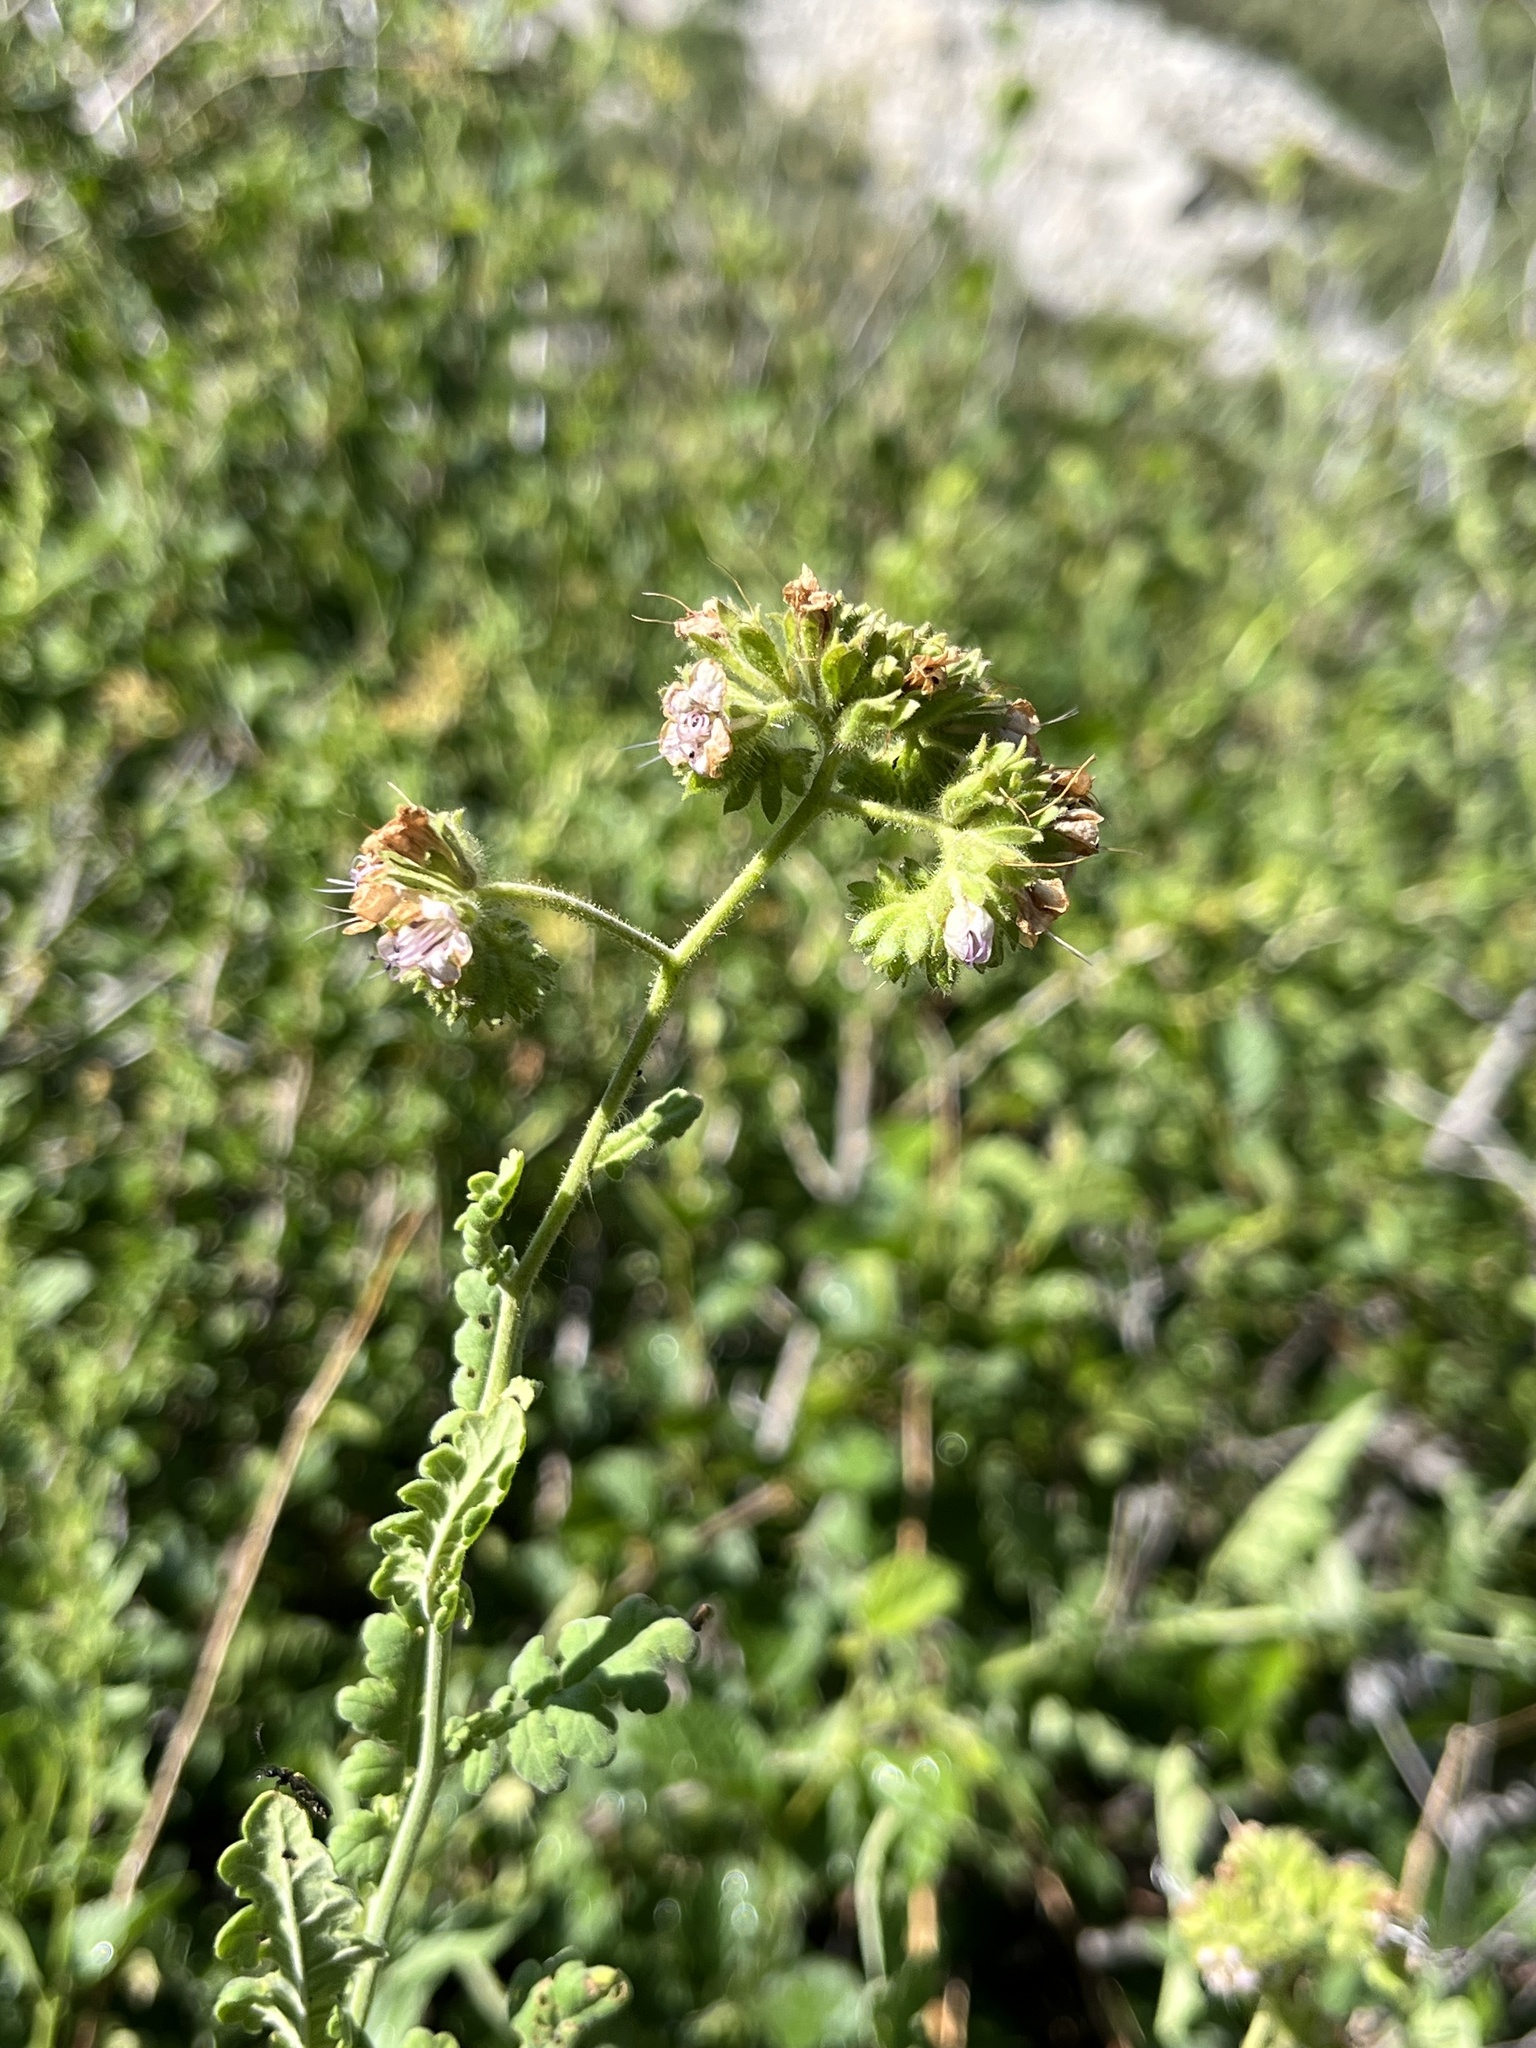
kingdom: Plantae
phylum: Tracheophyta
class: Magnoliopsida
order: Boraginales
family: Hydrophyllaceae
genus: Phacelia
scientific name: Phacelia ramosissima
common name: Branching phacelia
